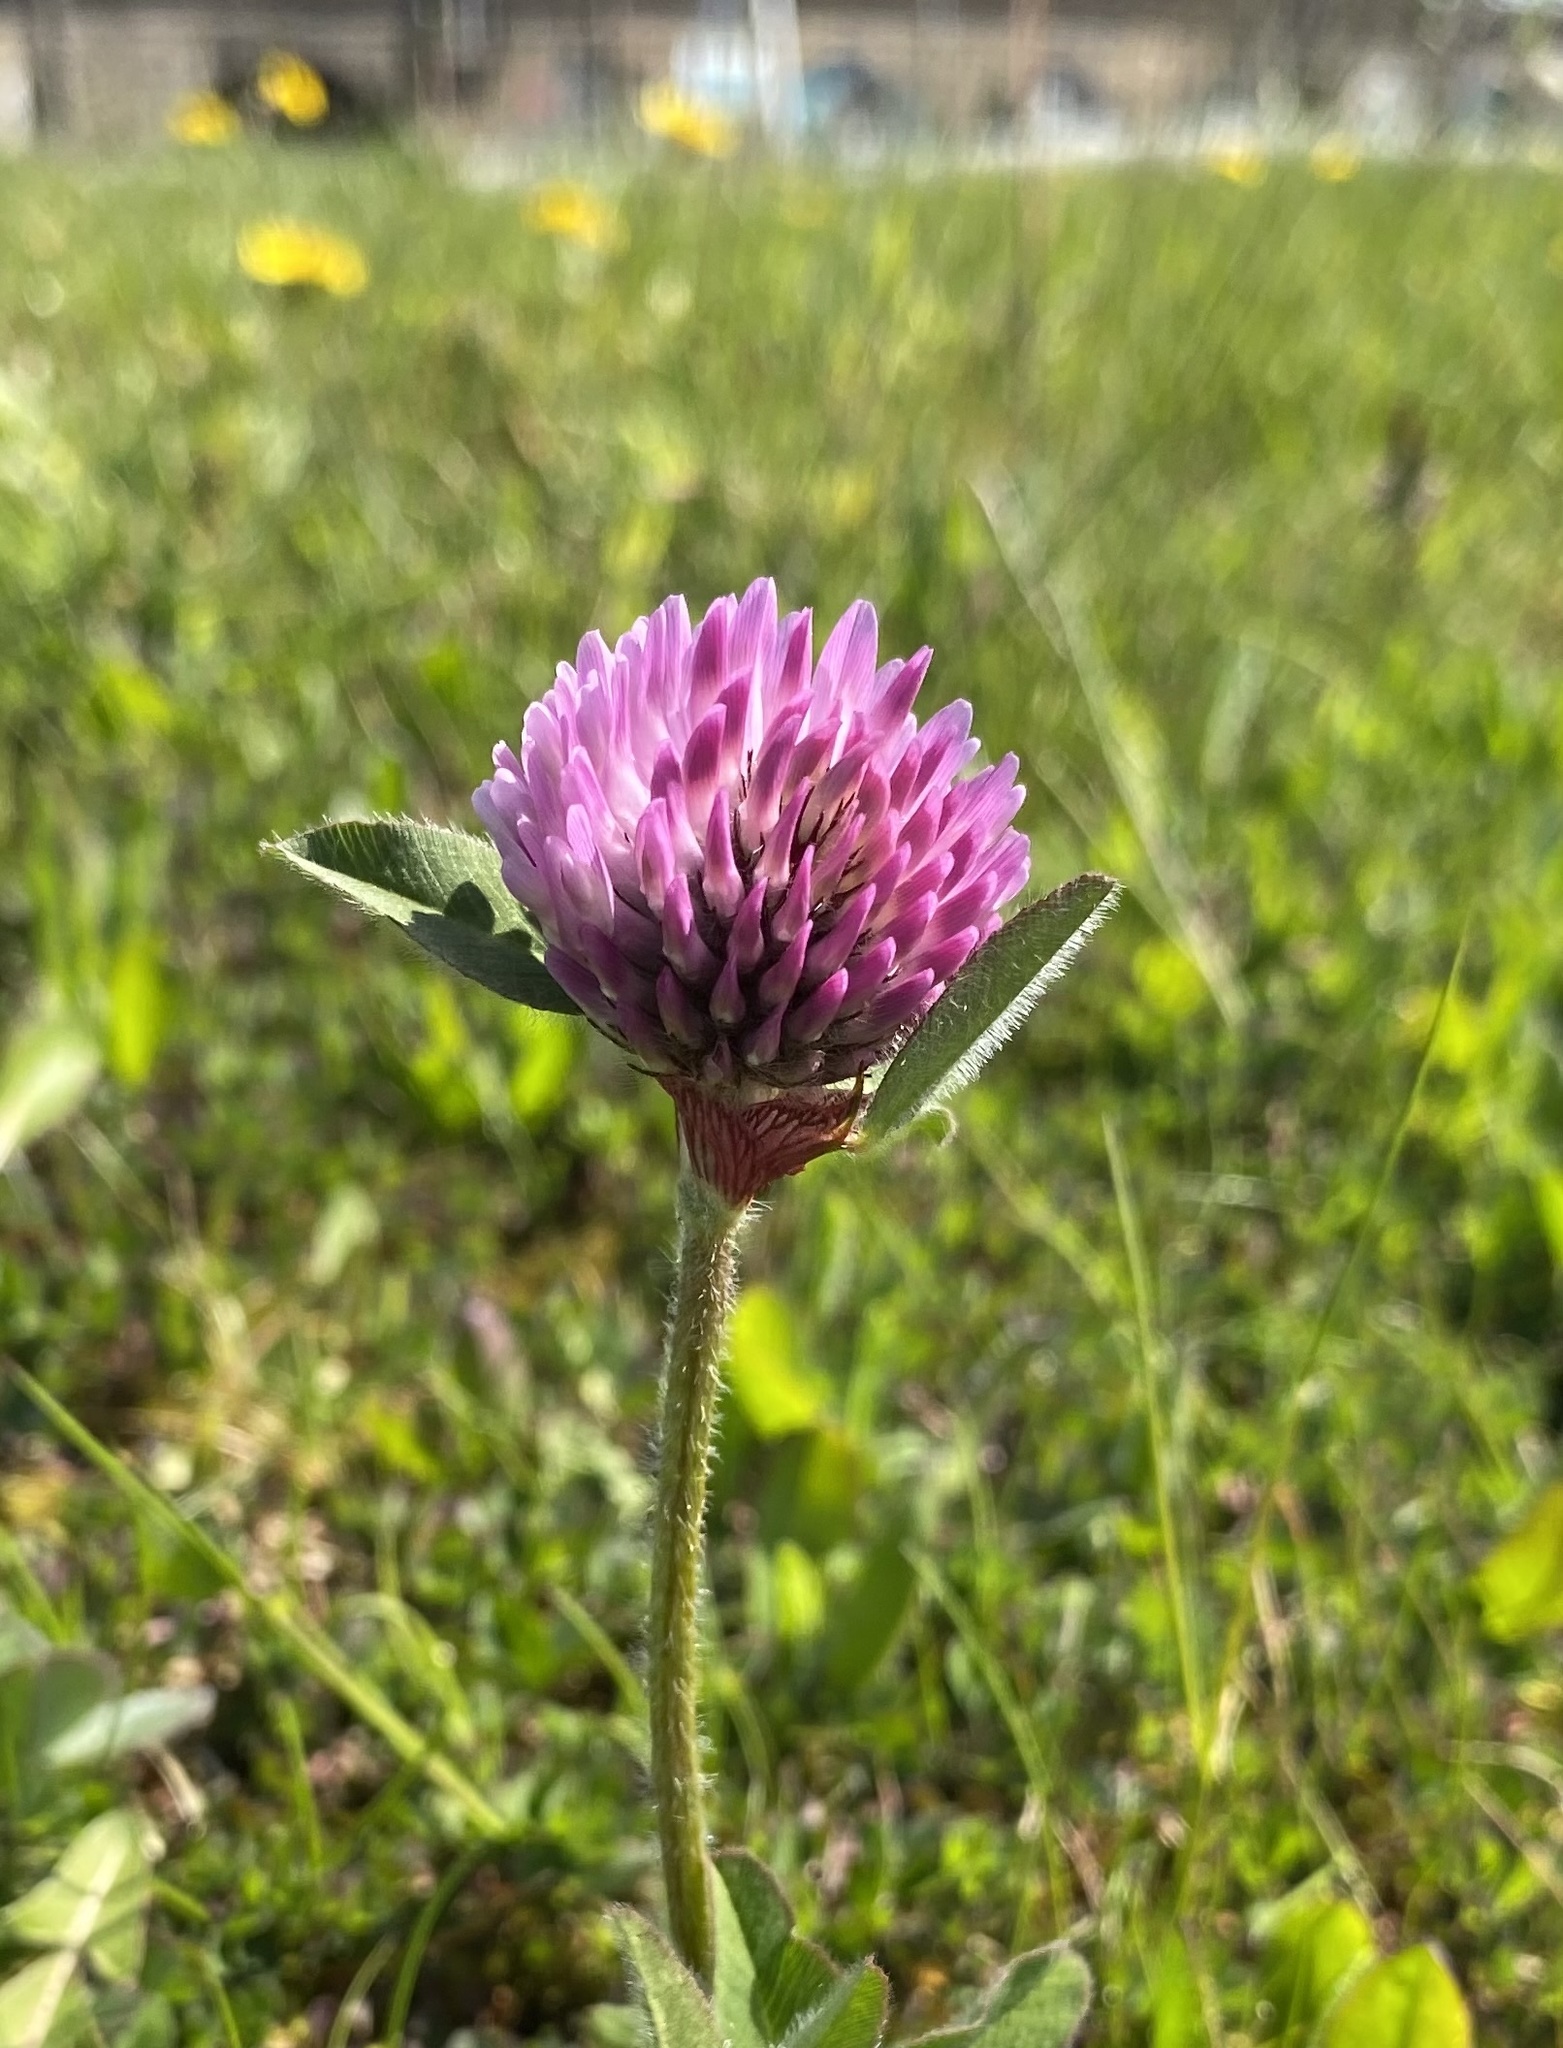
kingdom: Plantae
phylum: Tracheophyta
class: Magnoliopsida
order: Fabales
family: Fabaceae
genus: Trifolium
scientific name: Trifolium pratense
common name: Red clover
